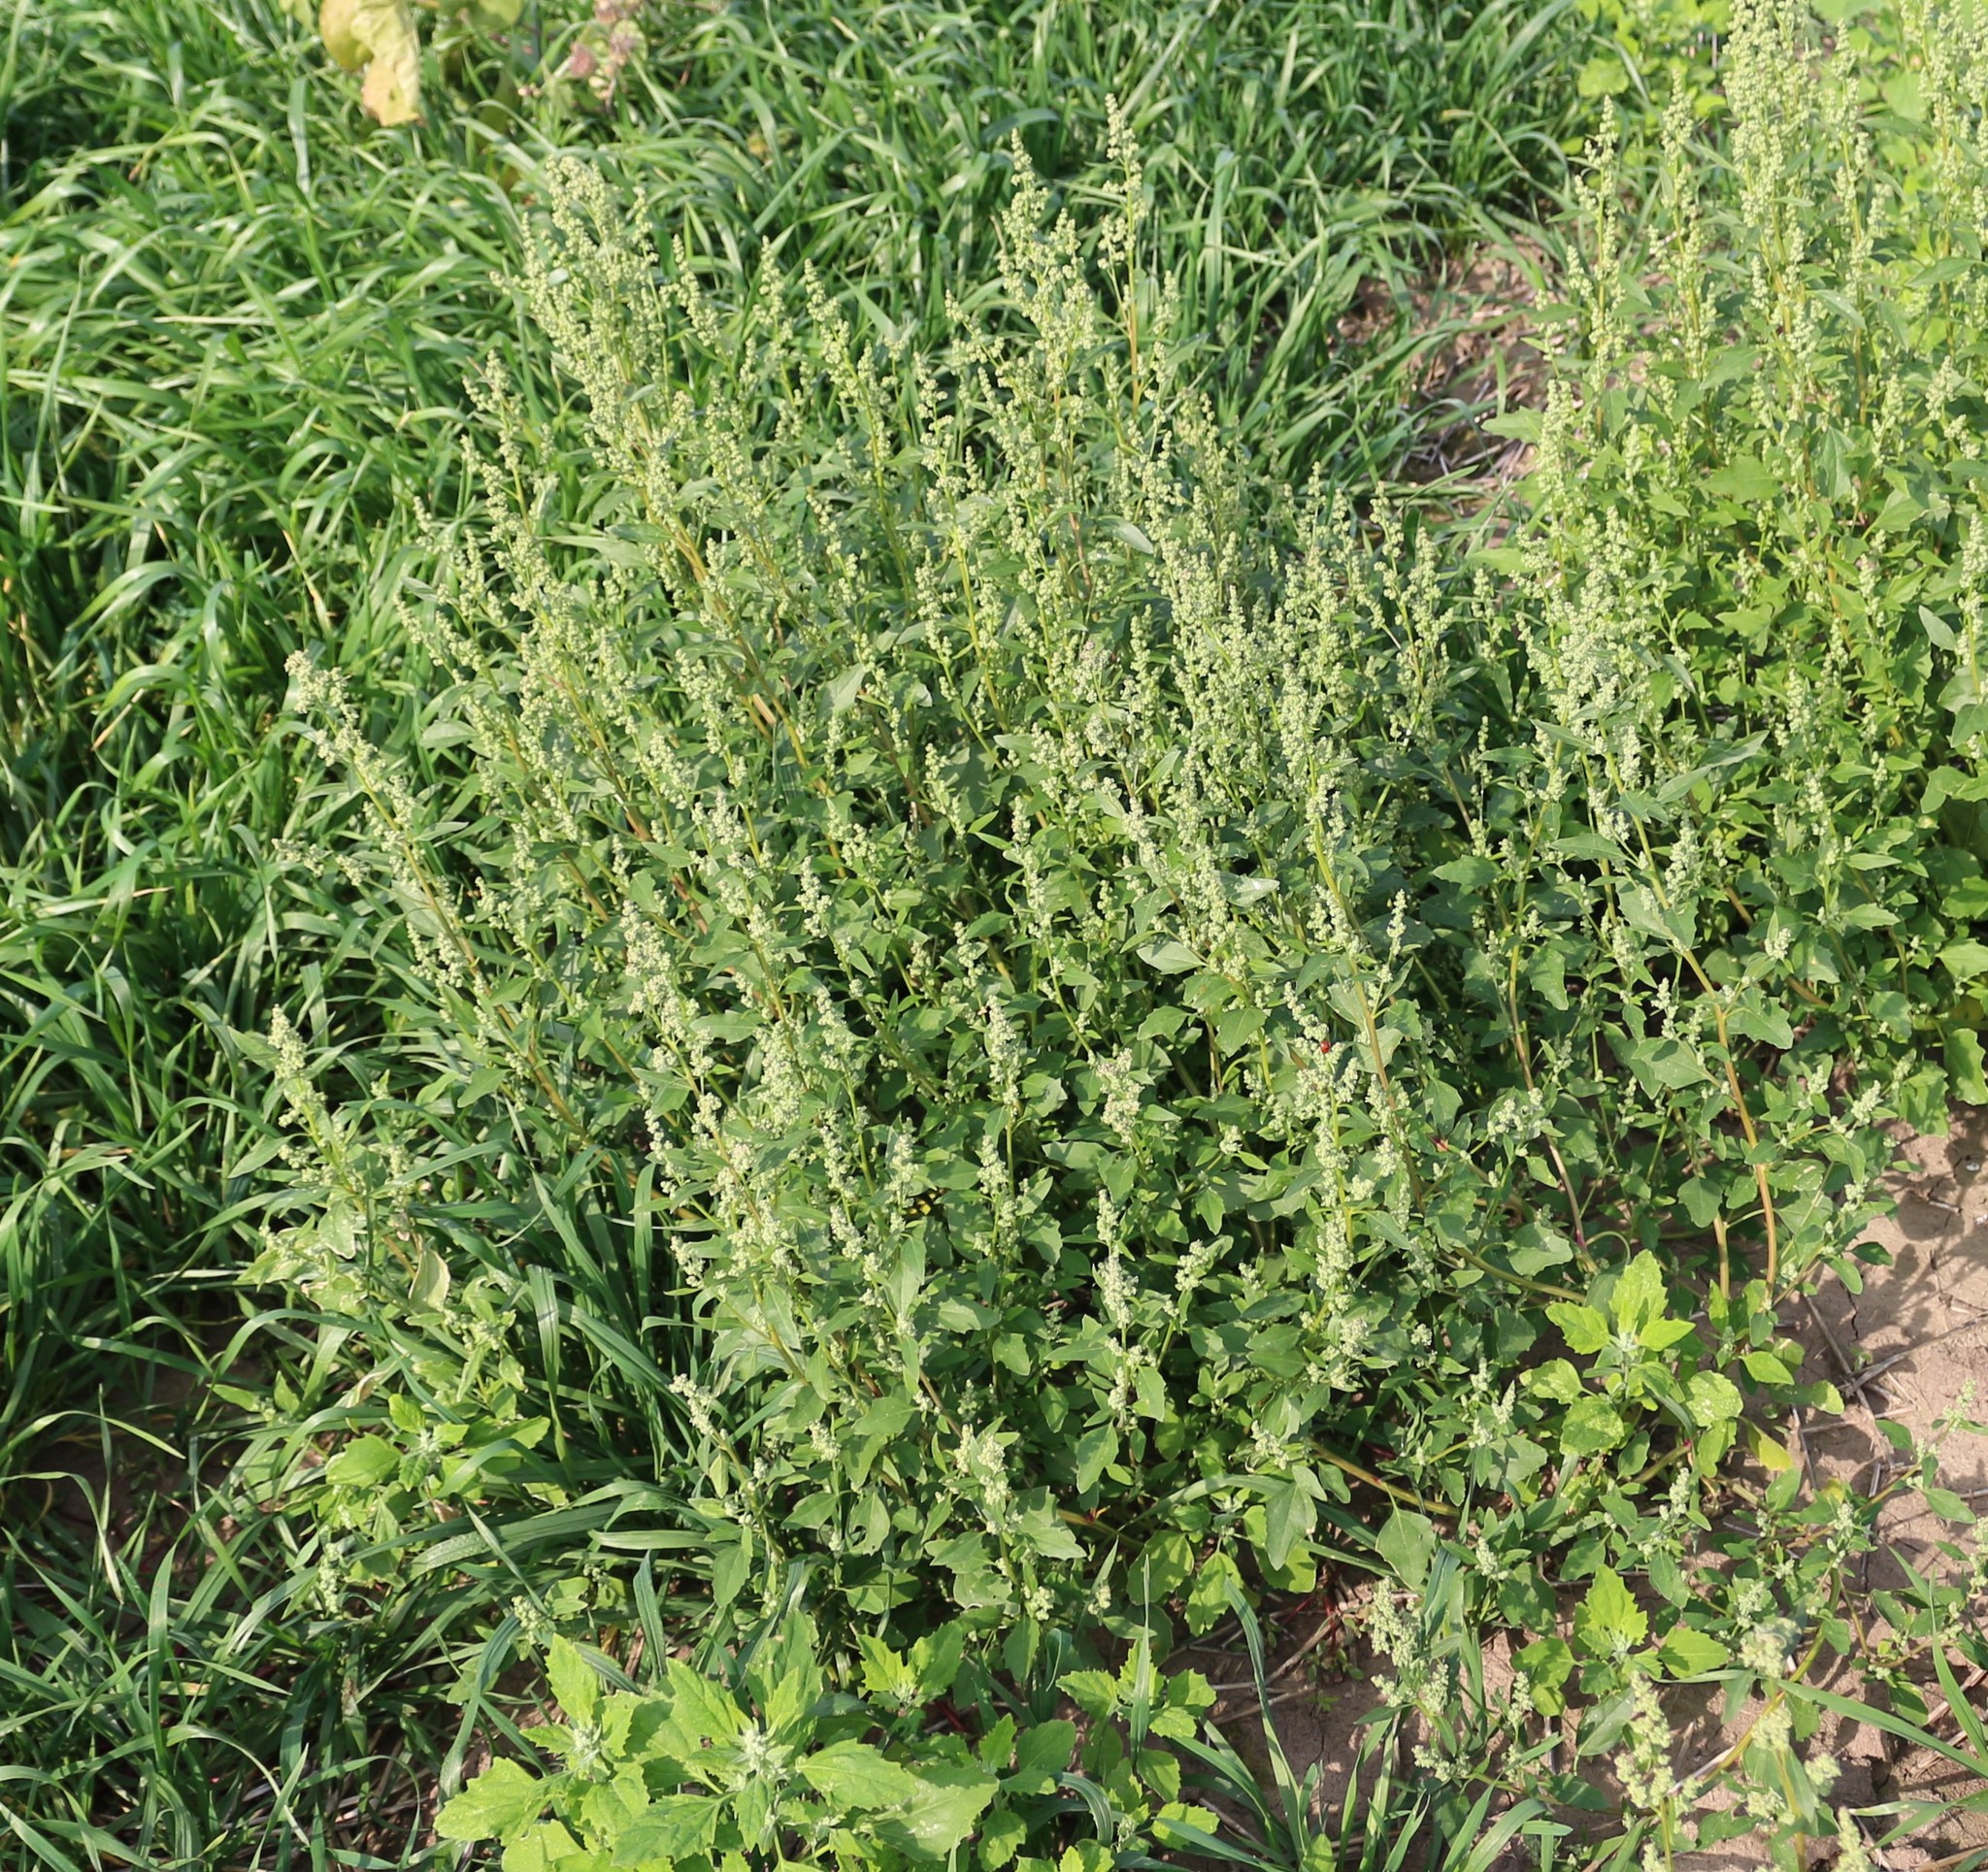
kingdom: Plantae
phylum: Tracheophyta
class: Magnoliopsida
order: Caryophyllales
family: Amaranthaceae
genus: Chenopodium
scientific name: Chenopodium album
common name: Fat-hen
